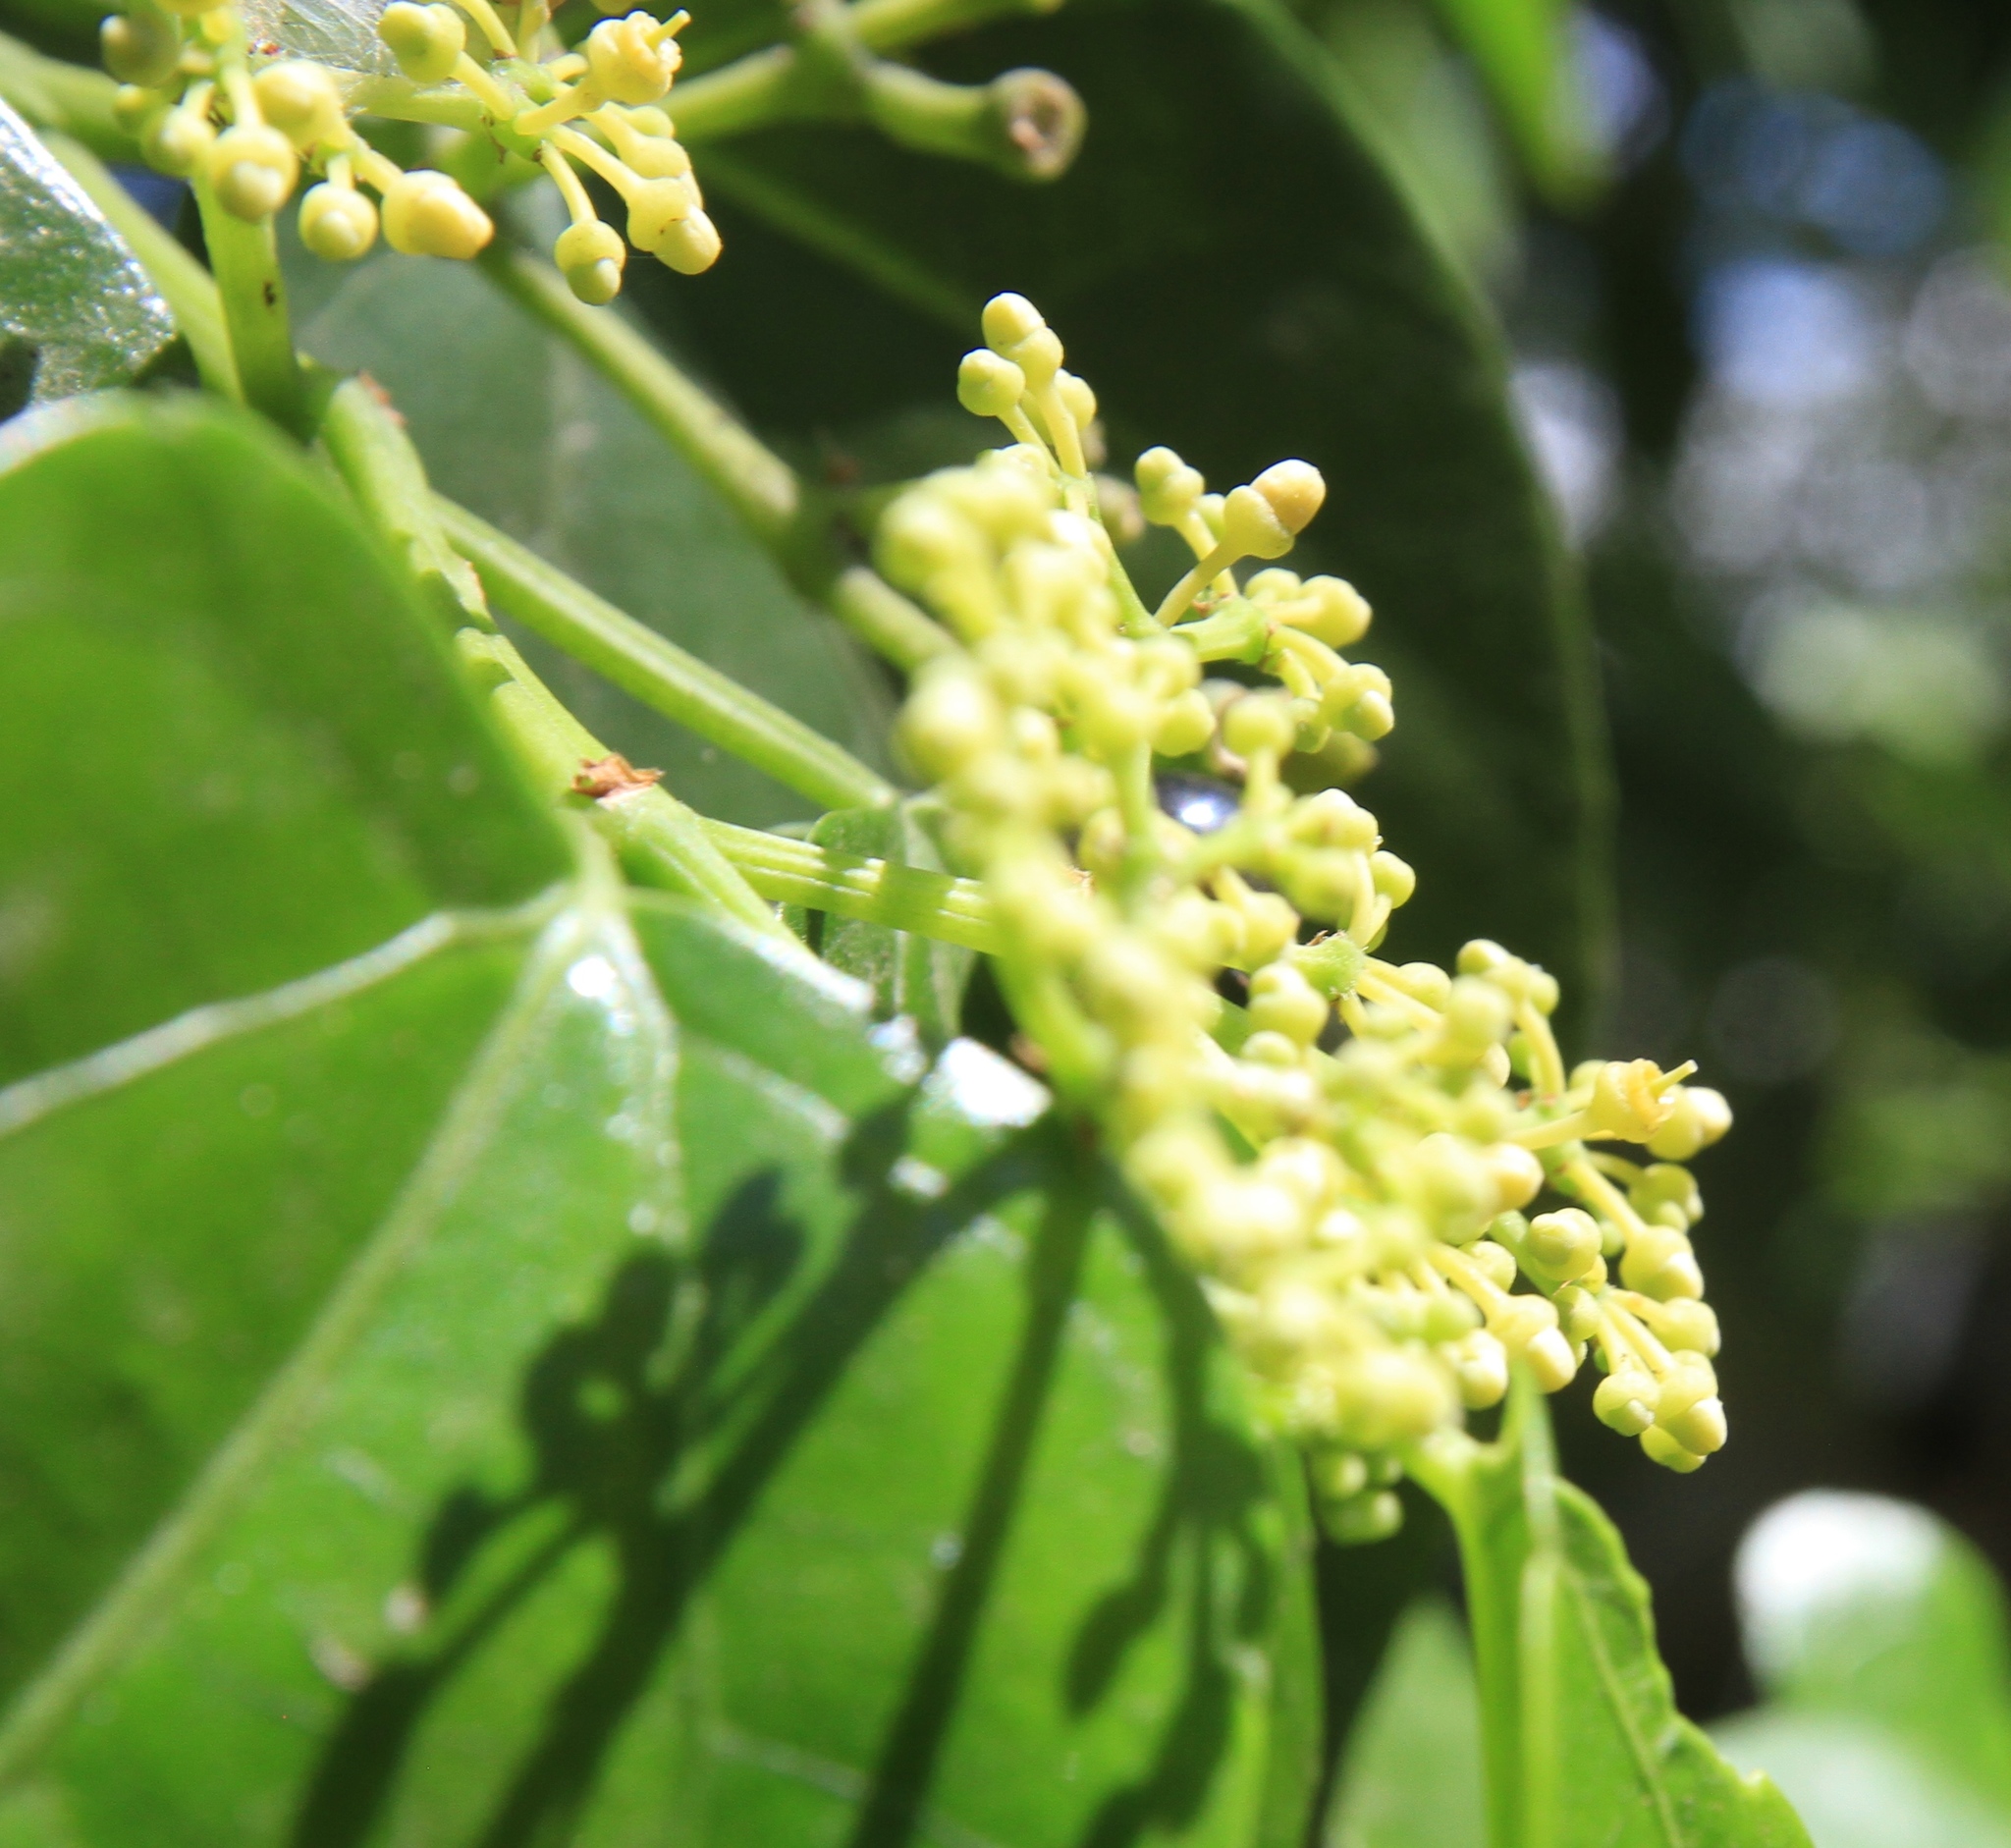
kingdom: Plantae
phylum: Tracheophyta
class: Magnoliopsida
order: Vitales
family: Vitaceae
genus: Cissus
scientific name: Cissus verticillata
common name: Princess vine
